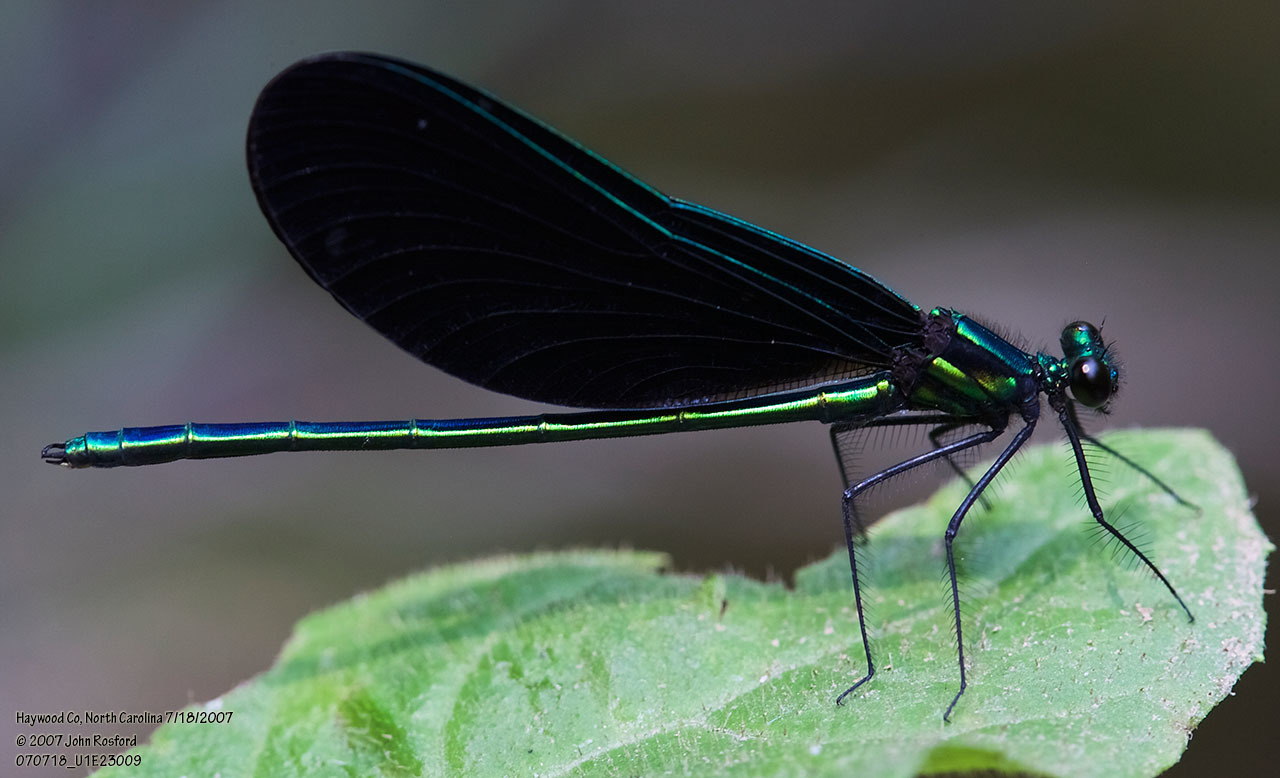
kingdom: Animalia
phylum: Arthropoda
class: Insecta
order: Odonata
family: Calopterygidae
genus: Calopteryx
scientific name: Calopteryx maculata
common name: Ebony jewelwing
